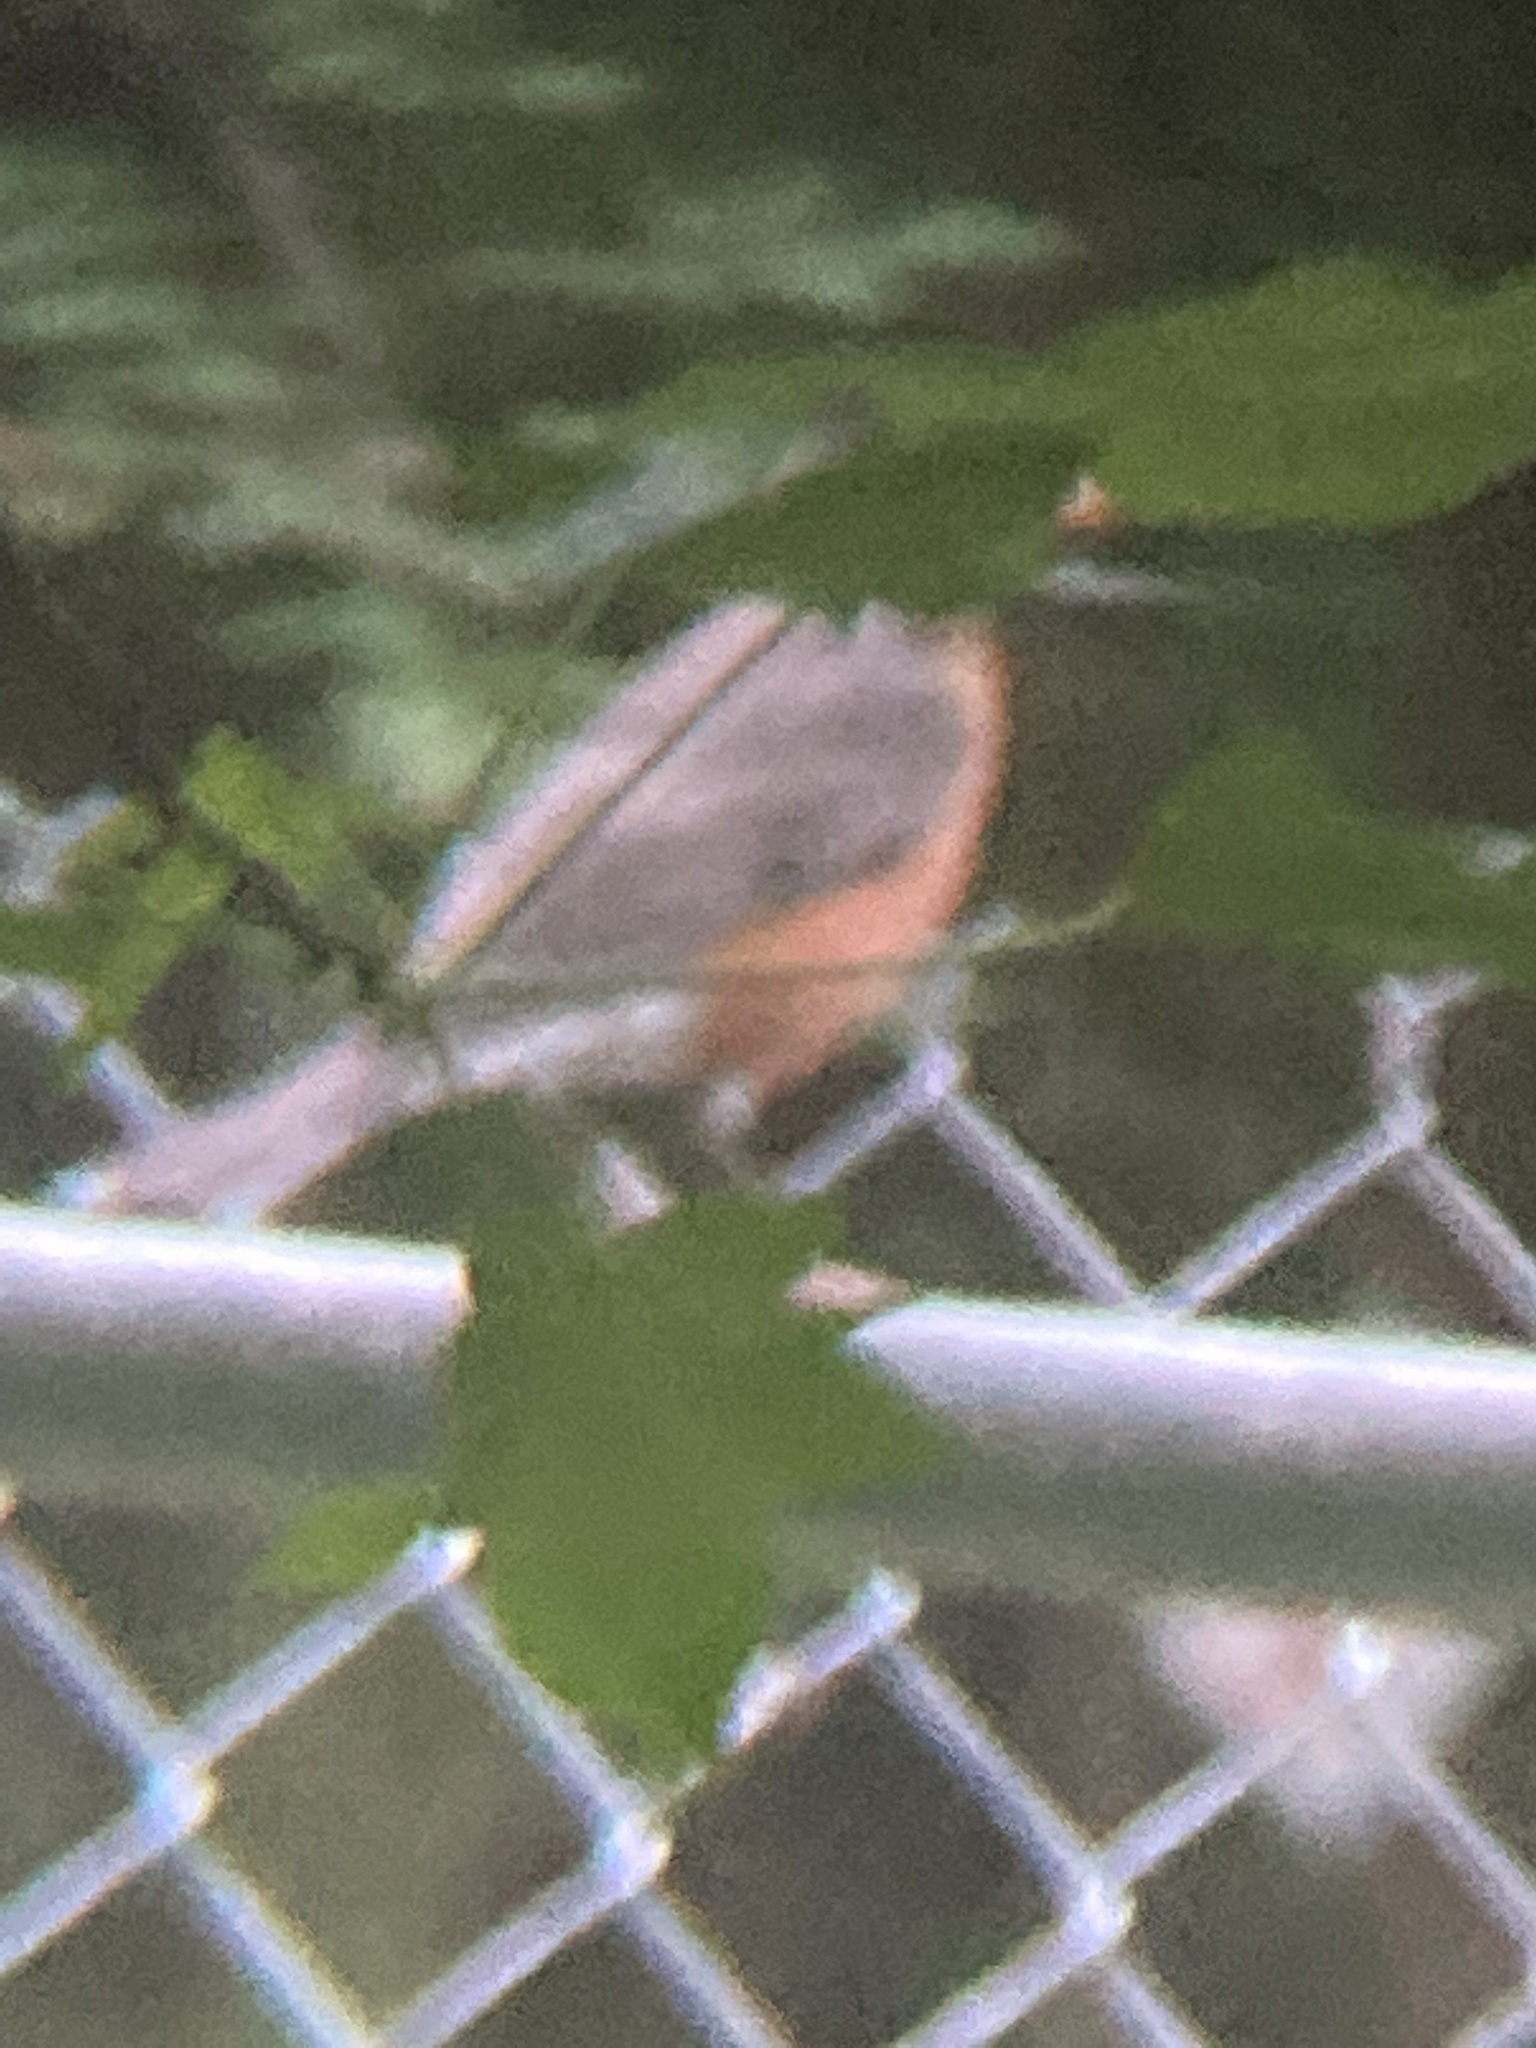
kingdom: Animalia
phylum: Chordata
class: Aves
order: Passeriformes
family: Turdidae
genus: Turdus
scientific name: Turdus migratorius
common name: American robin
